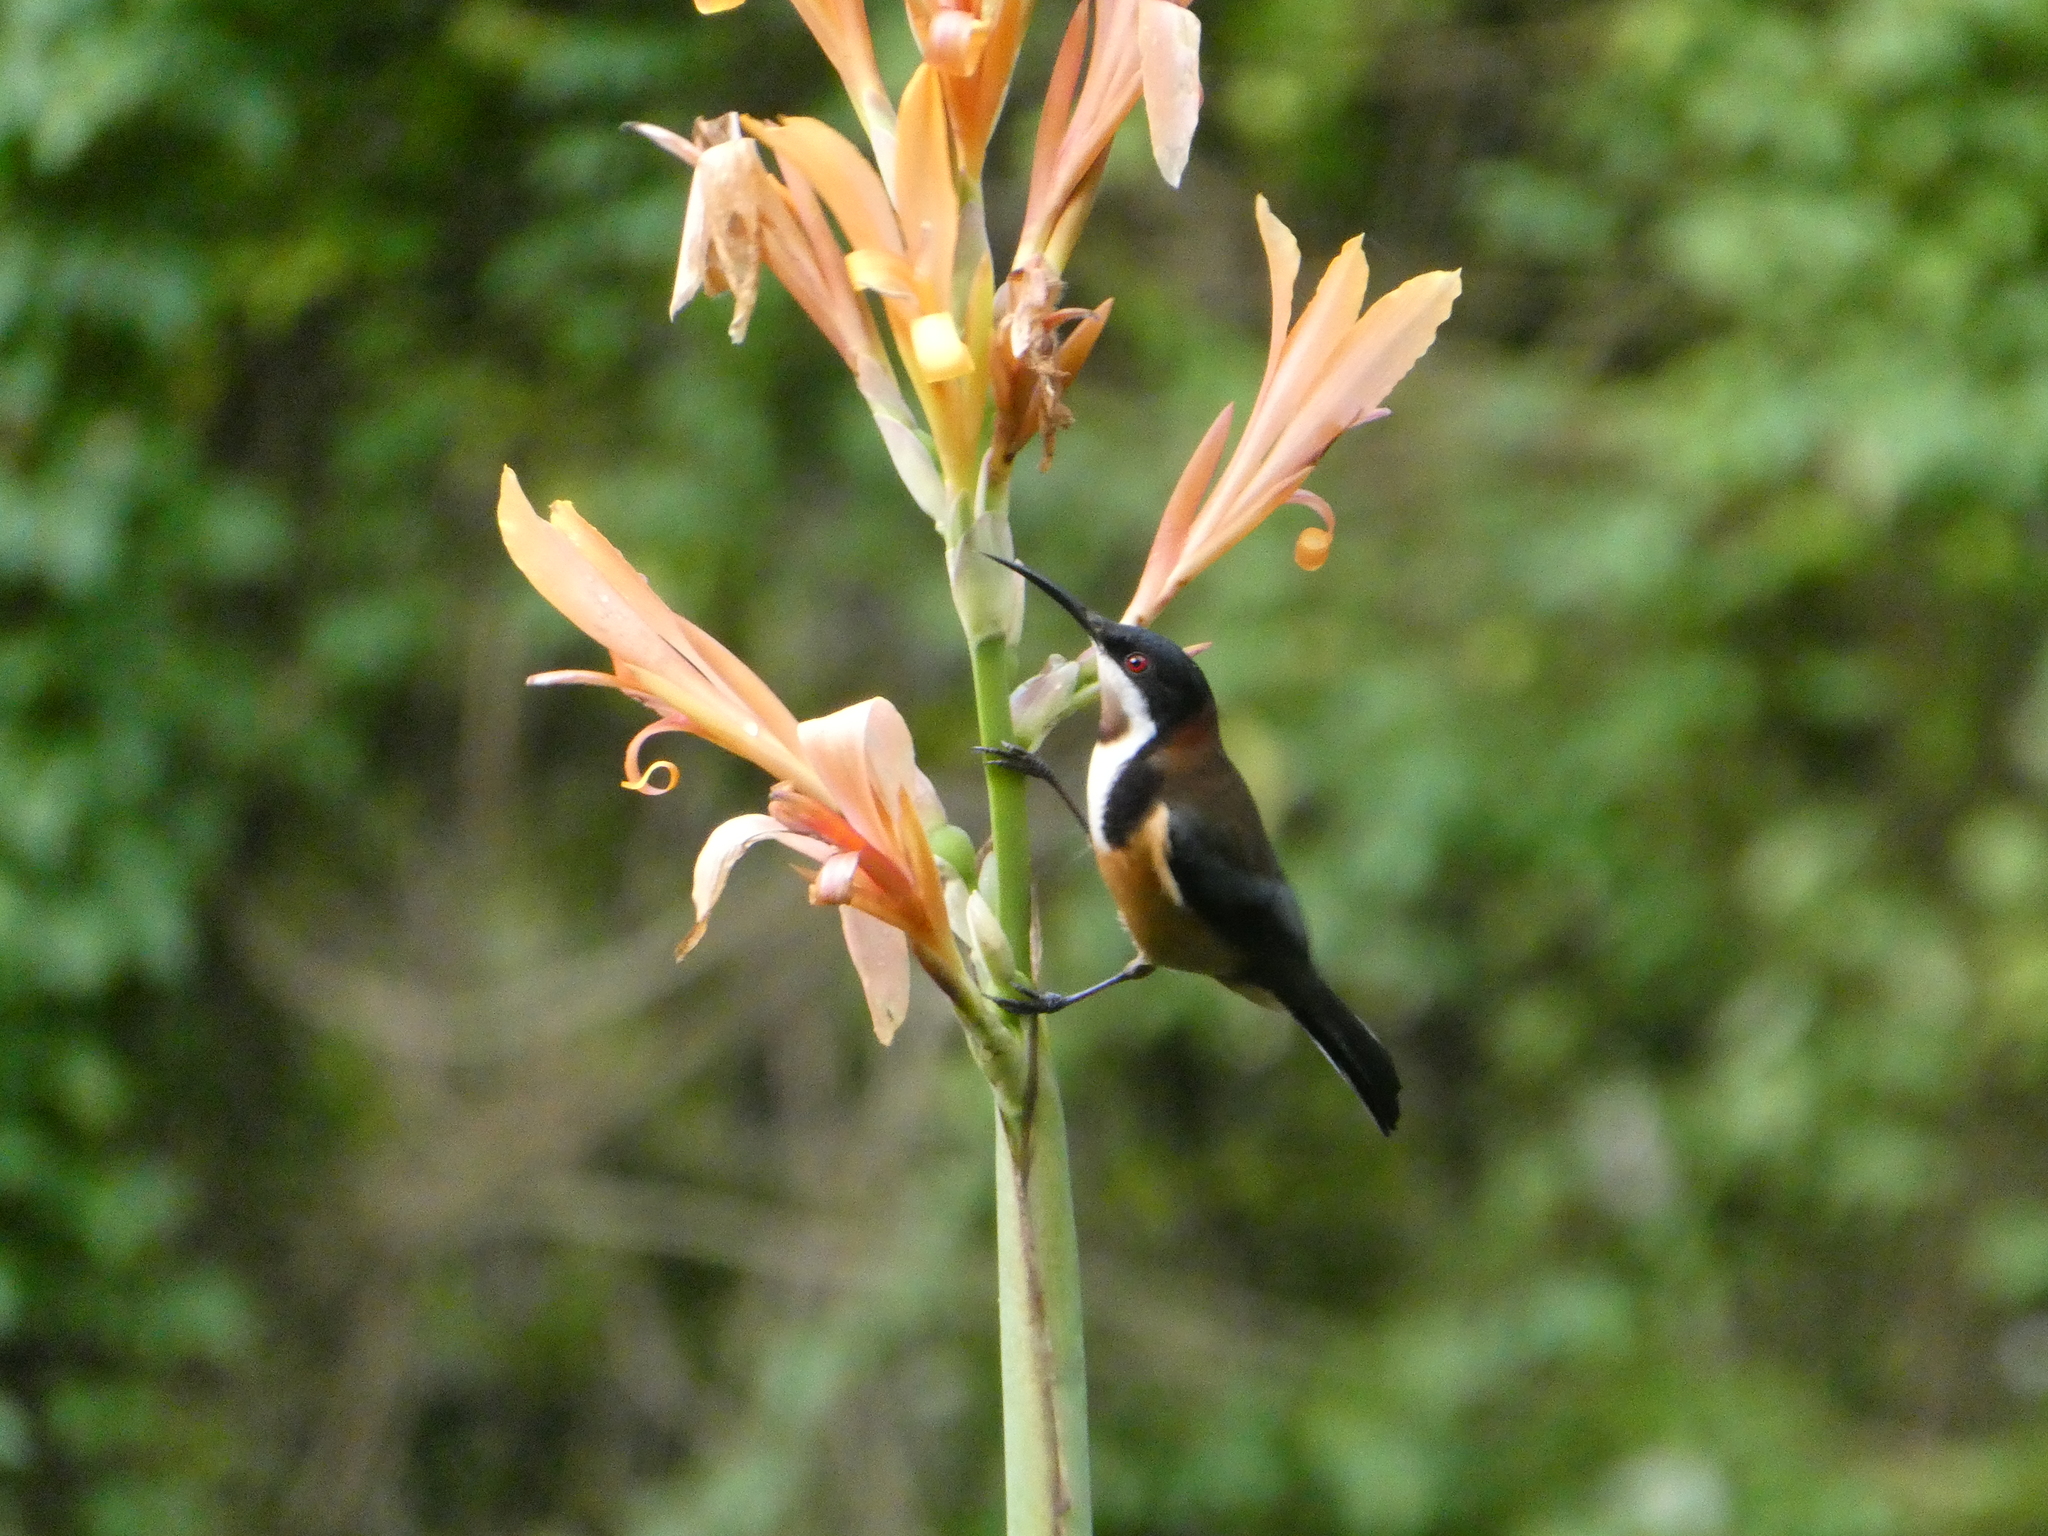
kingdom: Animalia
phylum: Chordata
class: Aves
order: Passeriformes
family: Meliphagidae
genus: Acanthorhynchus
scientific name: Acanthorhynchus tenuirostris
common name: Eastern spinebill
